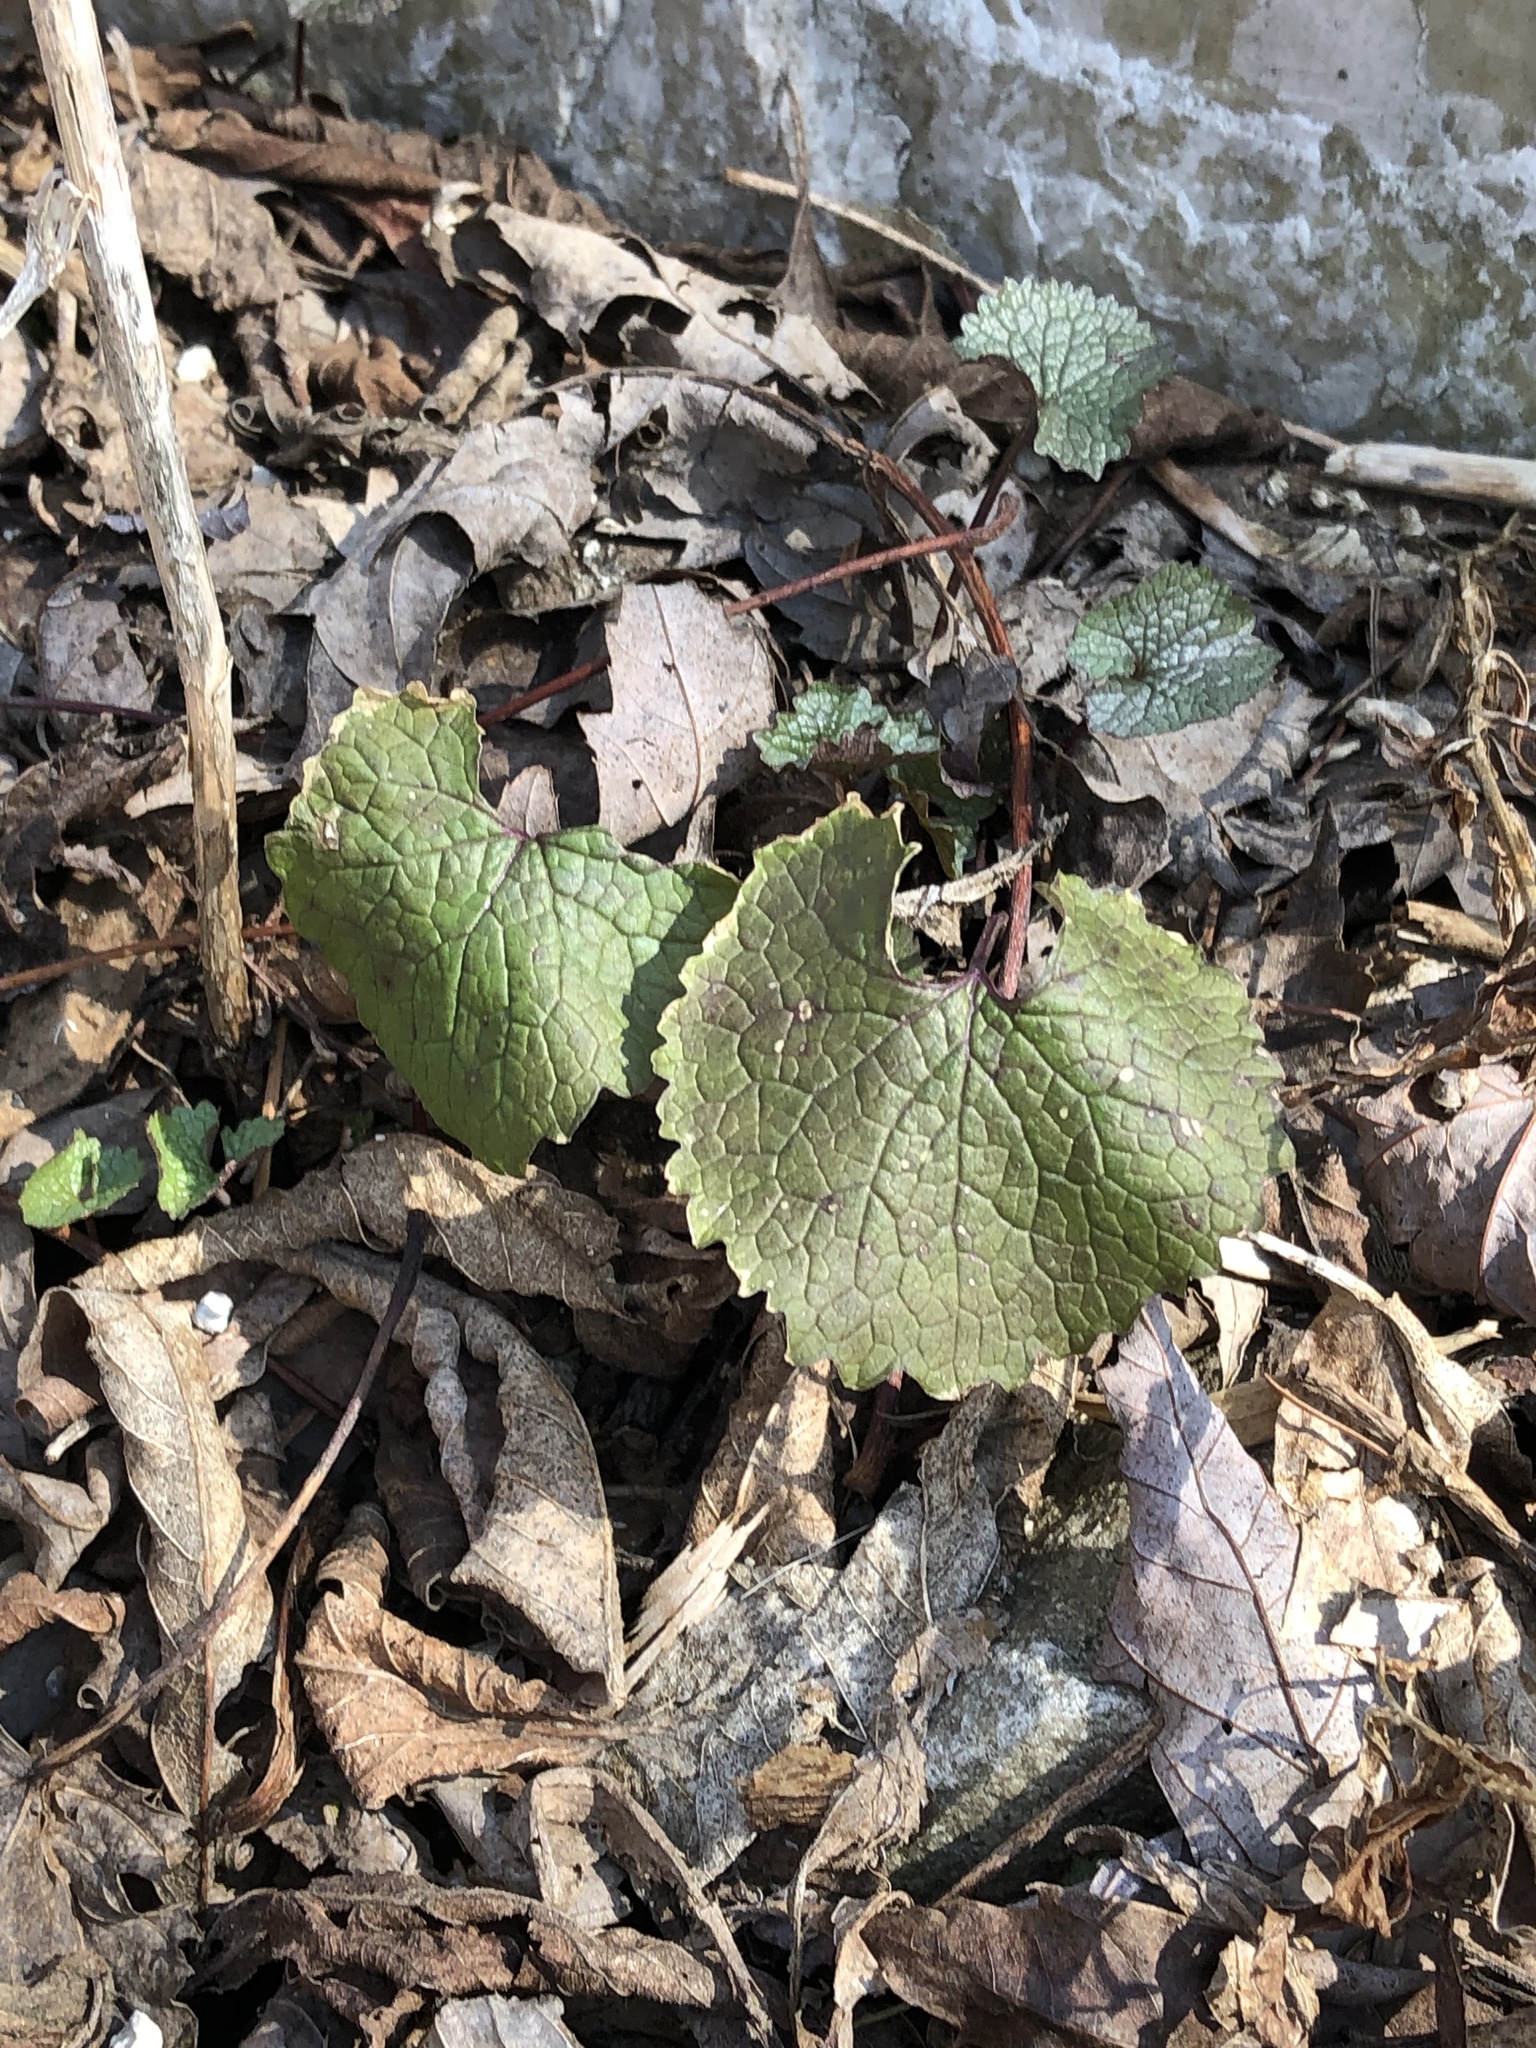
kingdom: Plantae
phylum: Tracheophyta
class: Magnoliopsida
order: Brassicales
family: Brassicaceae
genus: Alliaria
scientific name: Alliaria petiolata
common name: Garlic mustard
